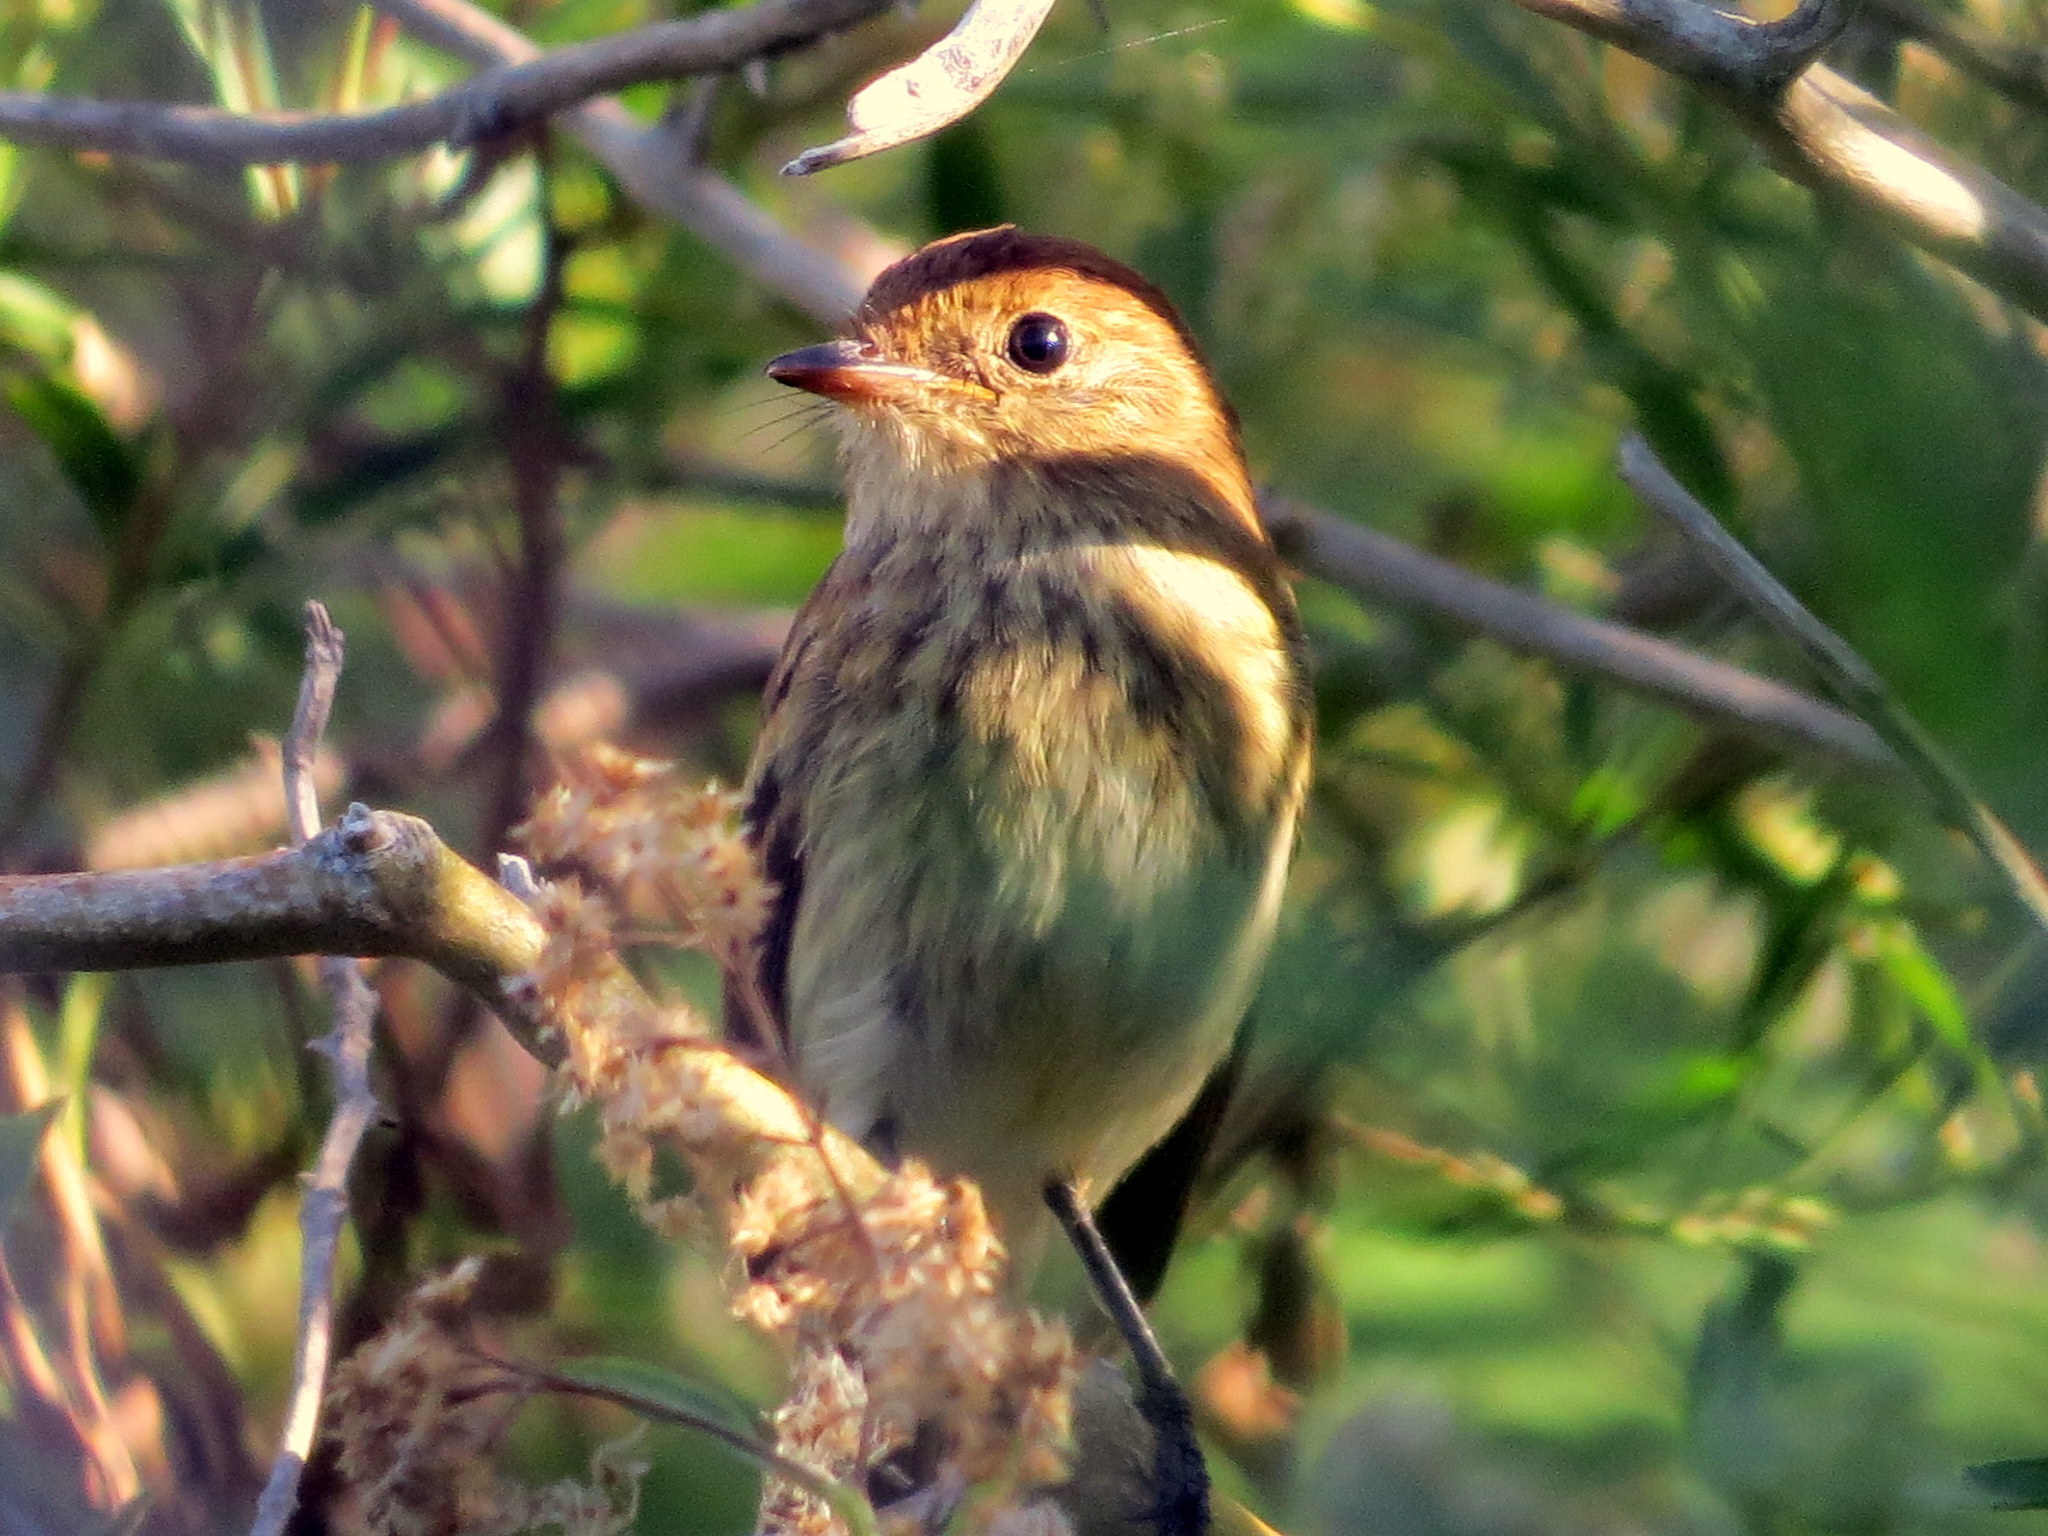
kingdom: Animalia
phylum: Chordata
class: Aves
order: Passeriformes
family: Tyrannidae
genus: Myiophobus
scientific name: Myiophobus fasciatus
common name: Bran-colored flycatcher
